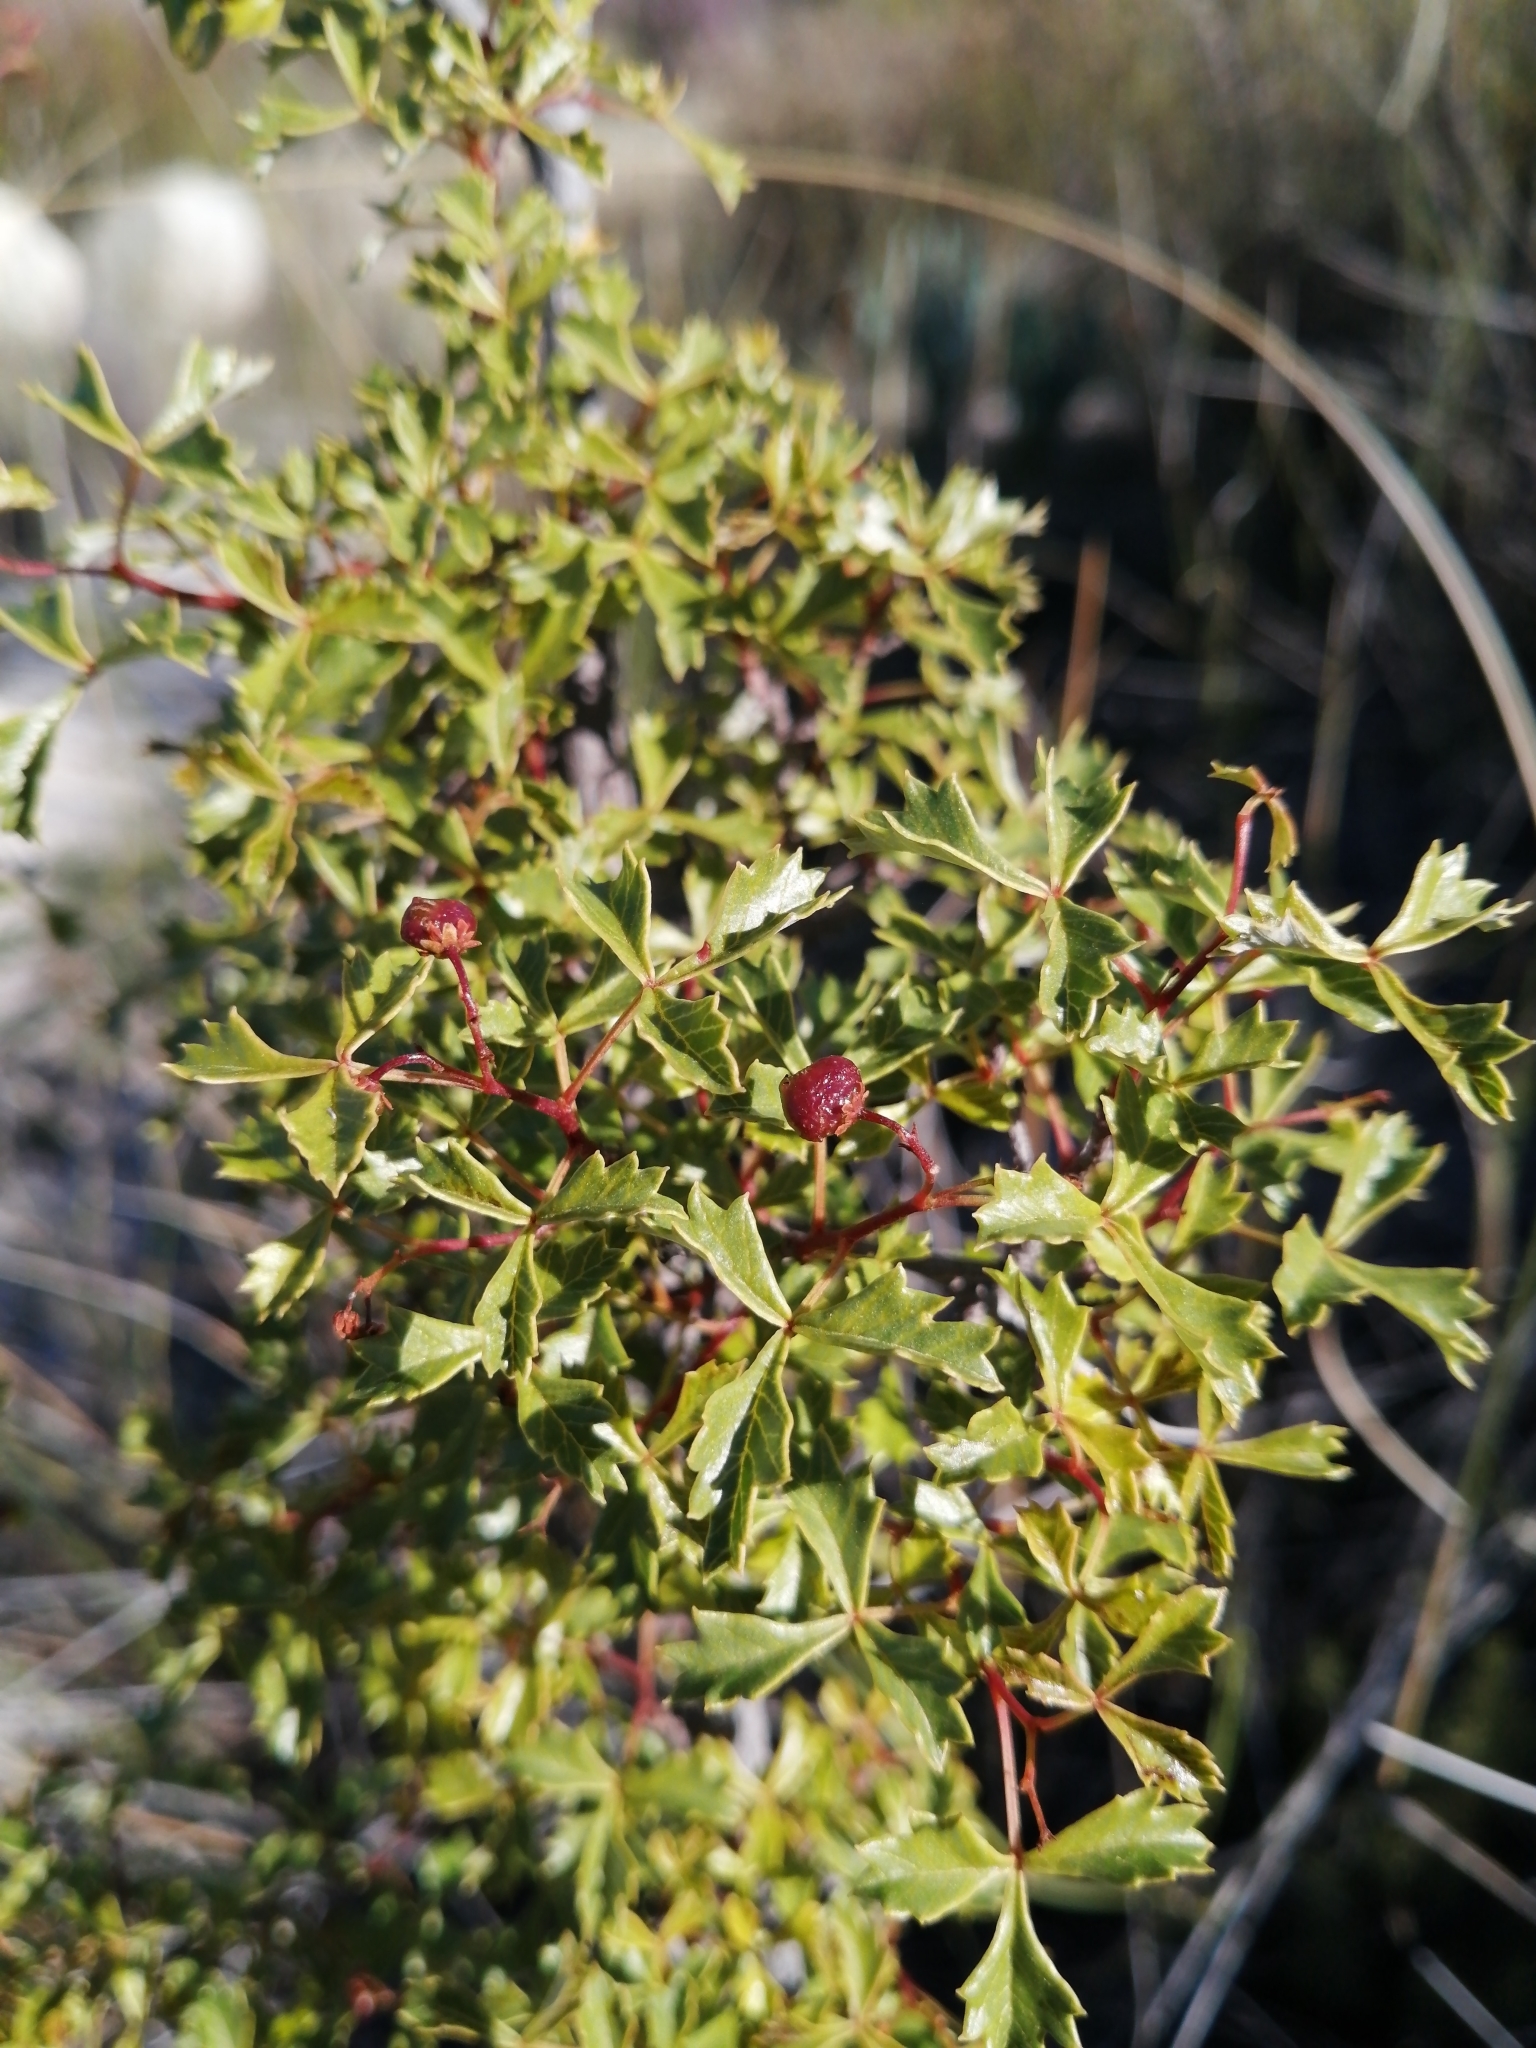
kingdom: Plantae
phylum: Tracheophyta
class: Magnoliopsida
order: Sapindales
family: Anacardiaceae
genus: Searsia
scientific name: Searsia dissecta
